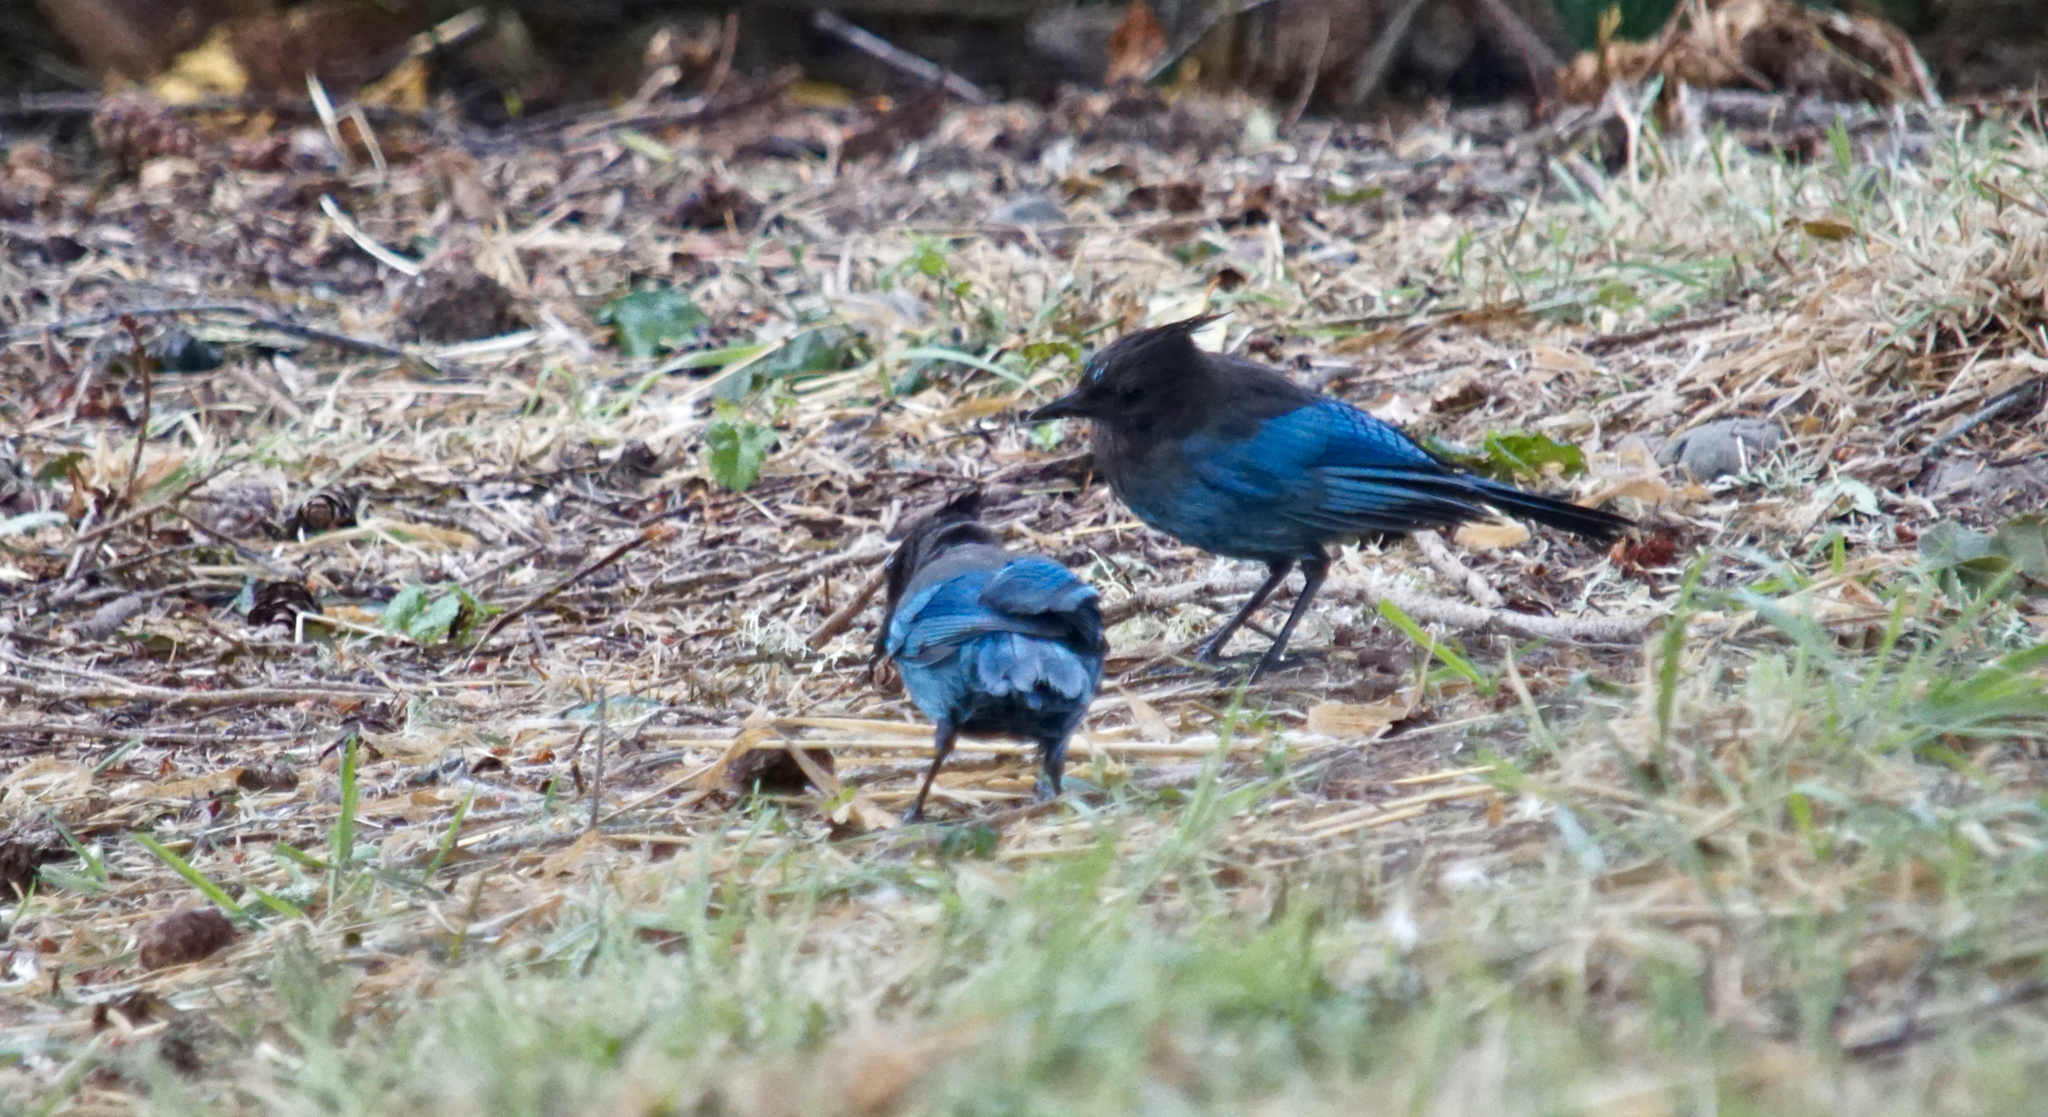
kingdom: Animalia
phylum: Chordata
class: Aves
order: Passeriformes
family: Corvidae
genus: Cyanocitta
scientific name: Cyanocitta stelleri
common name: Steller's jay
